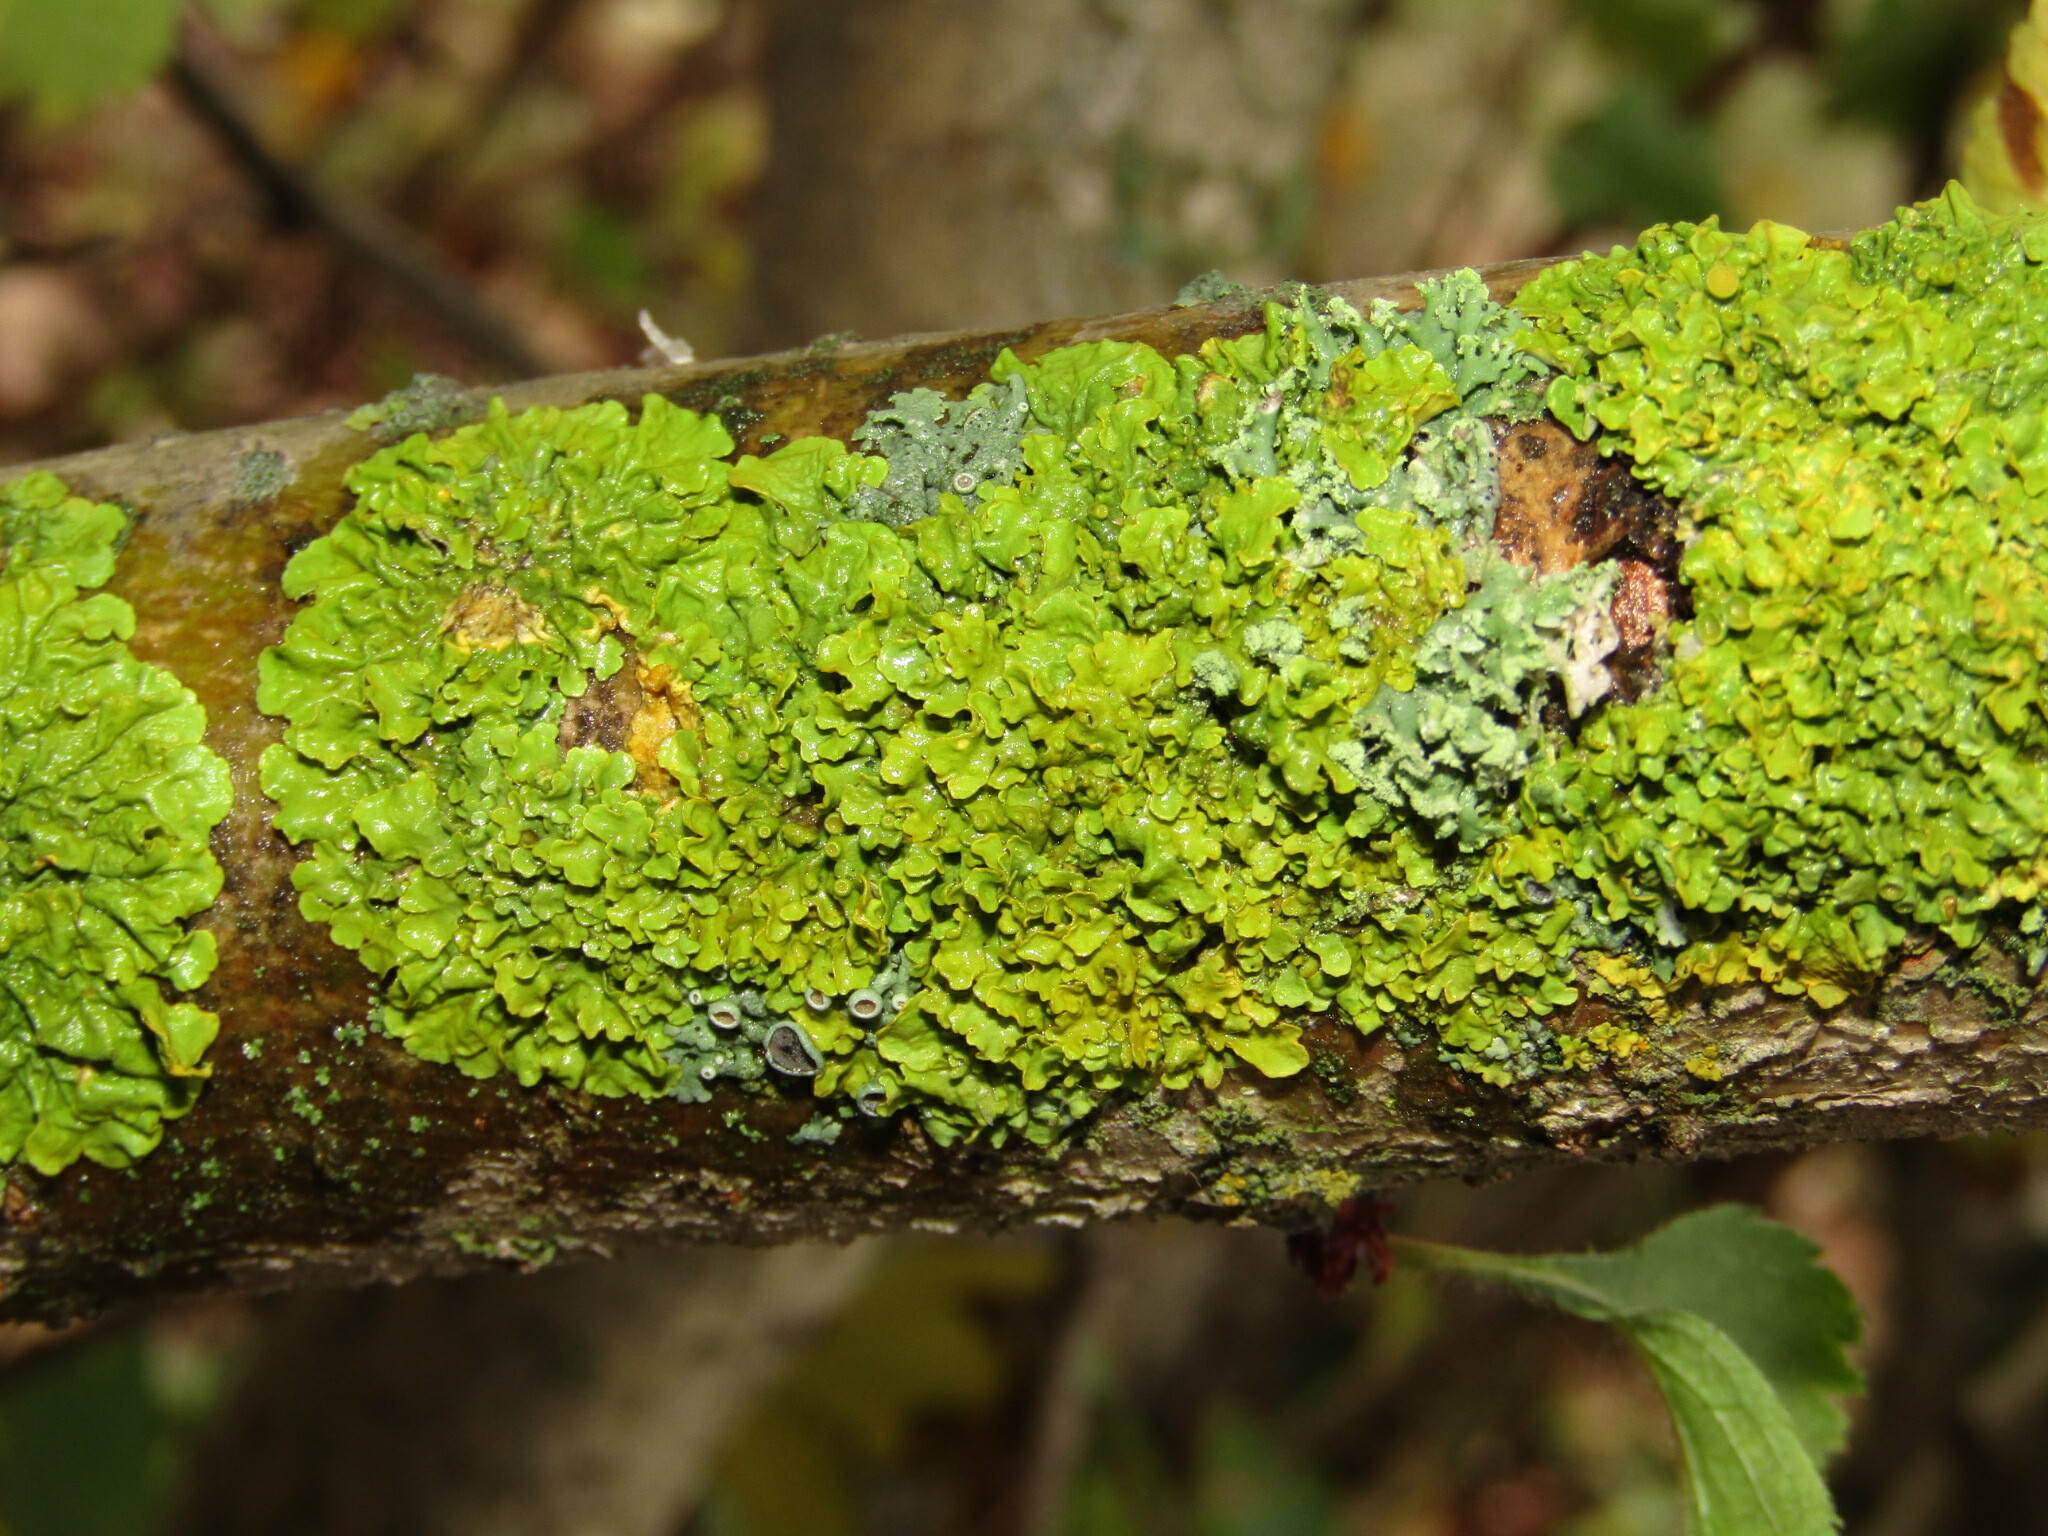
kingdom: Fungi
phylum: Ascomycota
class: Lecanoromycetes
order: Teloschistales
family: Teloschistaceae
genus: Xanthoria
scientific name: Xanthoria parietina
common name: Common orange lichen
